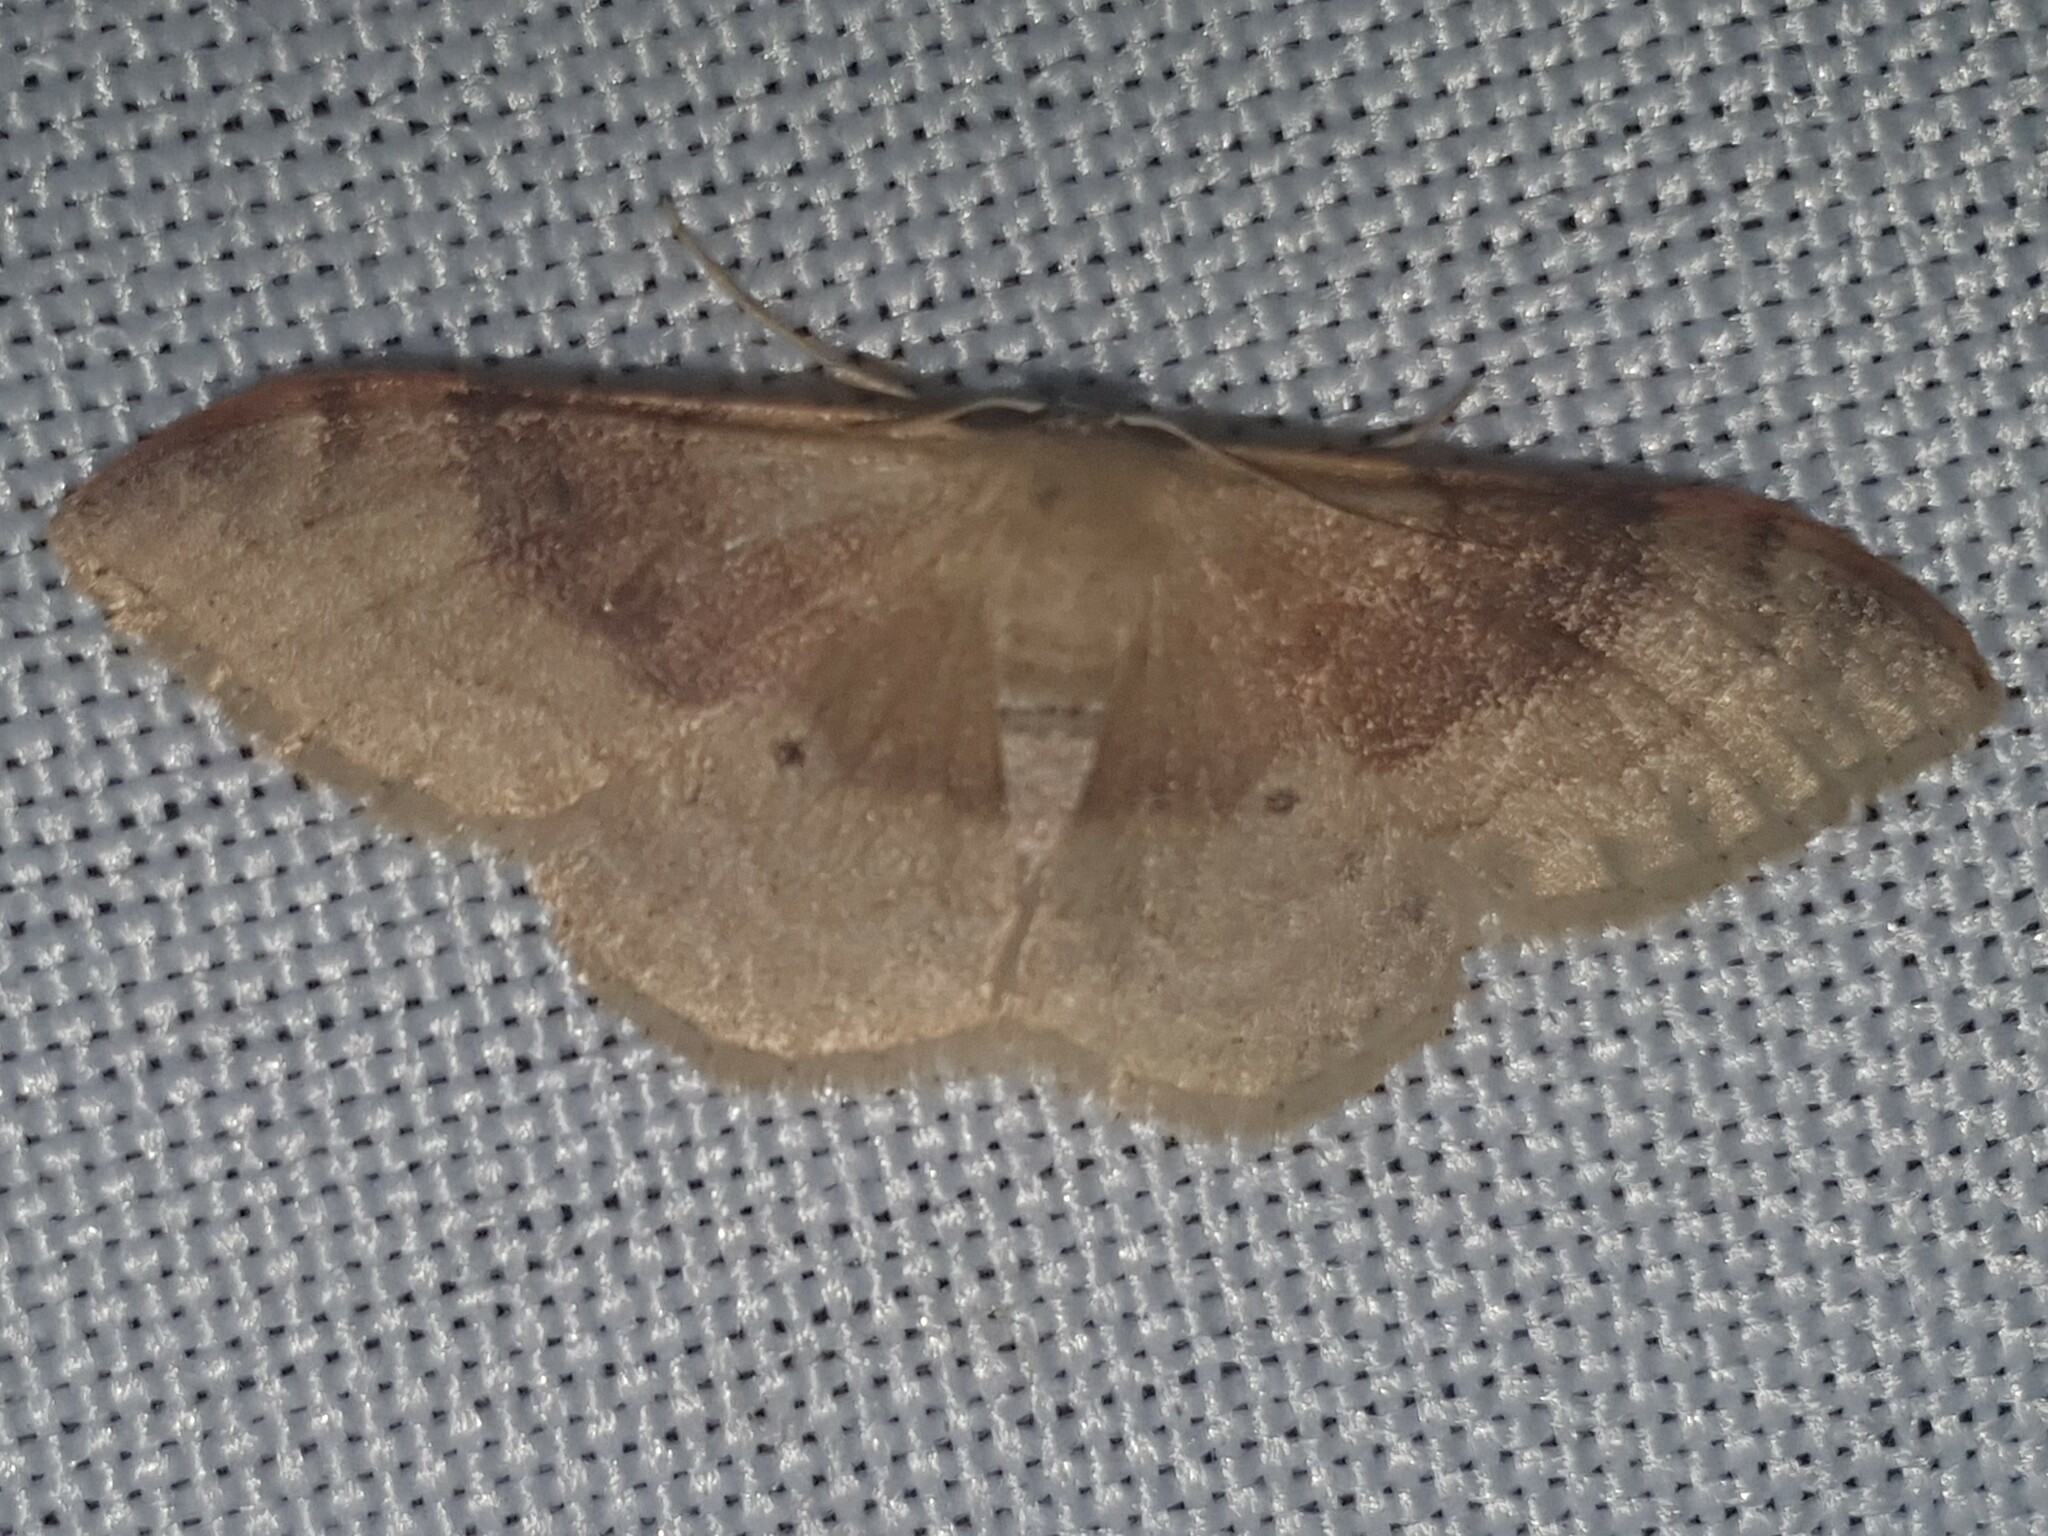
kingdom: Animalia
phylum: Arthropoda
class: Insecta
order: Lepidoptera
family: Geometridae
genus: Idaea
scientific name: Idaea degeneraria
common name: Portland ribbon wave
